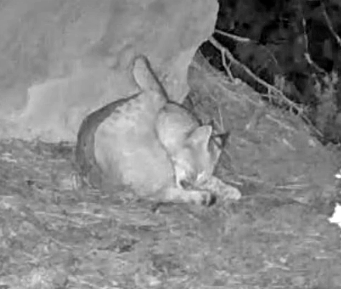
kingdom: Animalia
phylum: Chordata
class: Mammalia
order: Carnivora
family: Felidae
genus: Lynx
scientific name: Lynx rufus
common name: Bobcat
